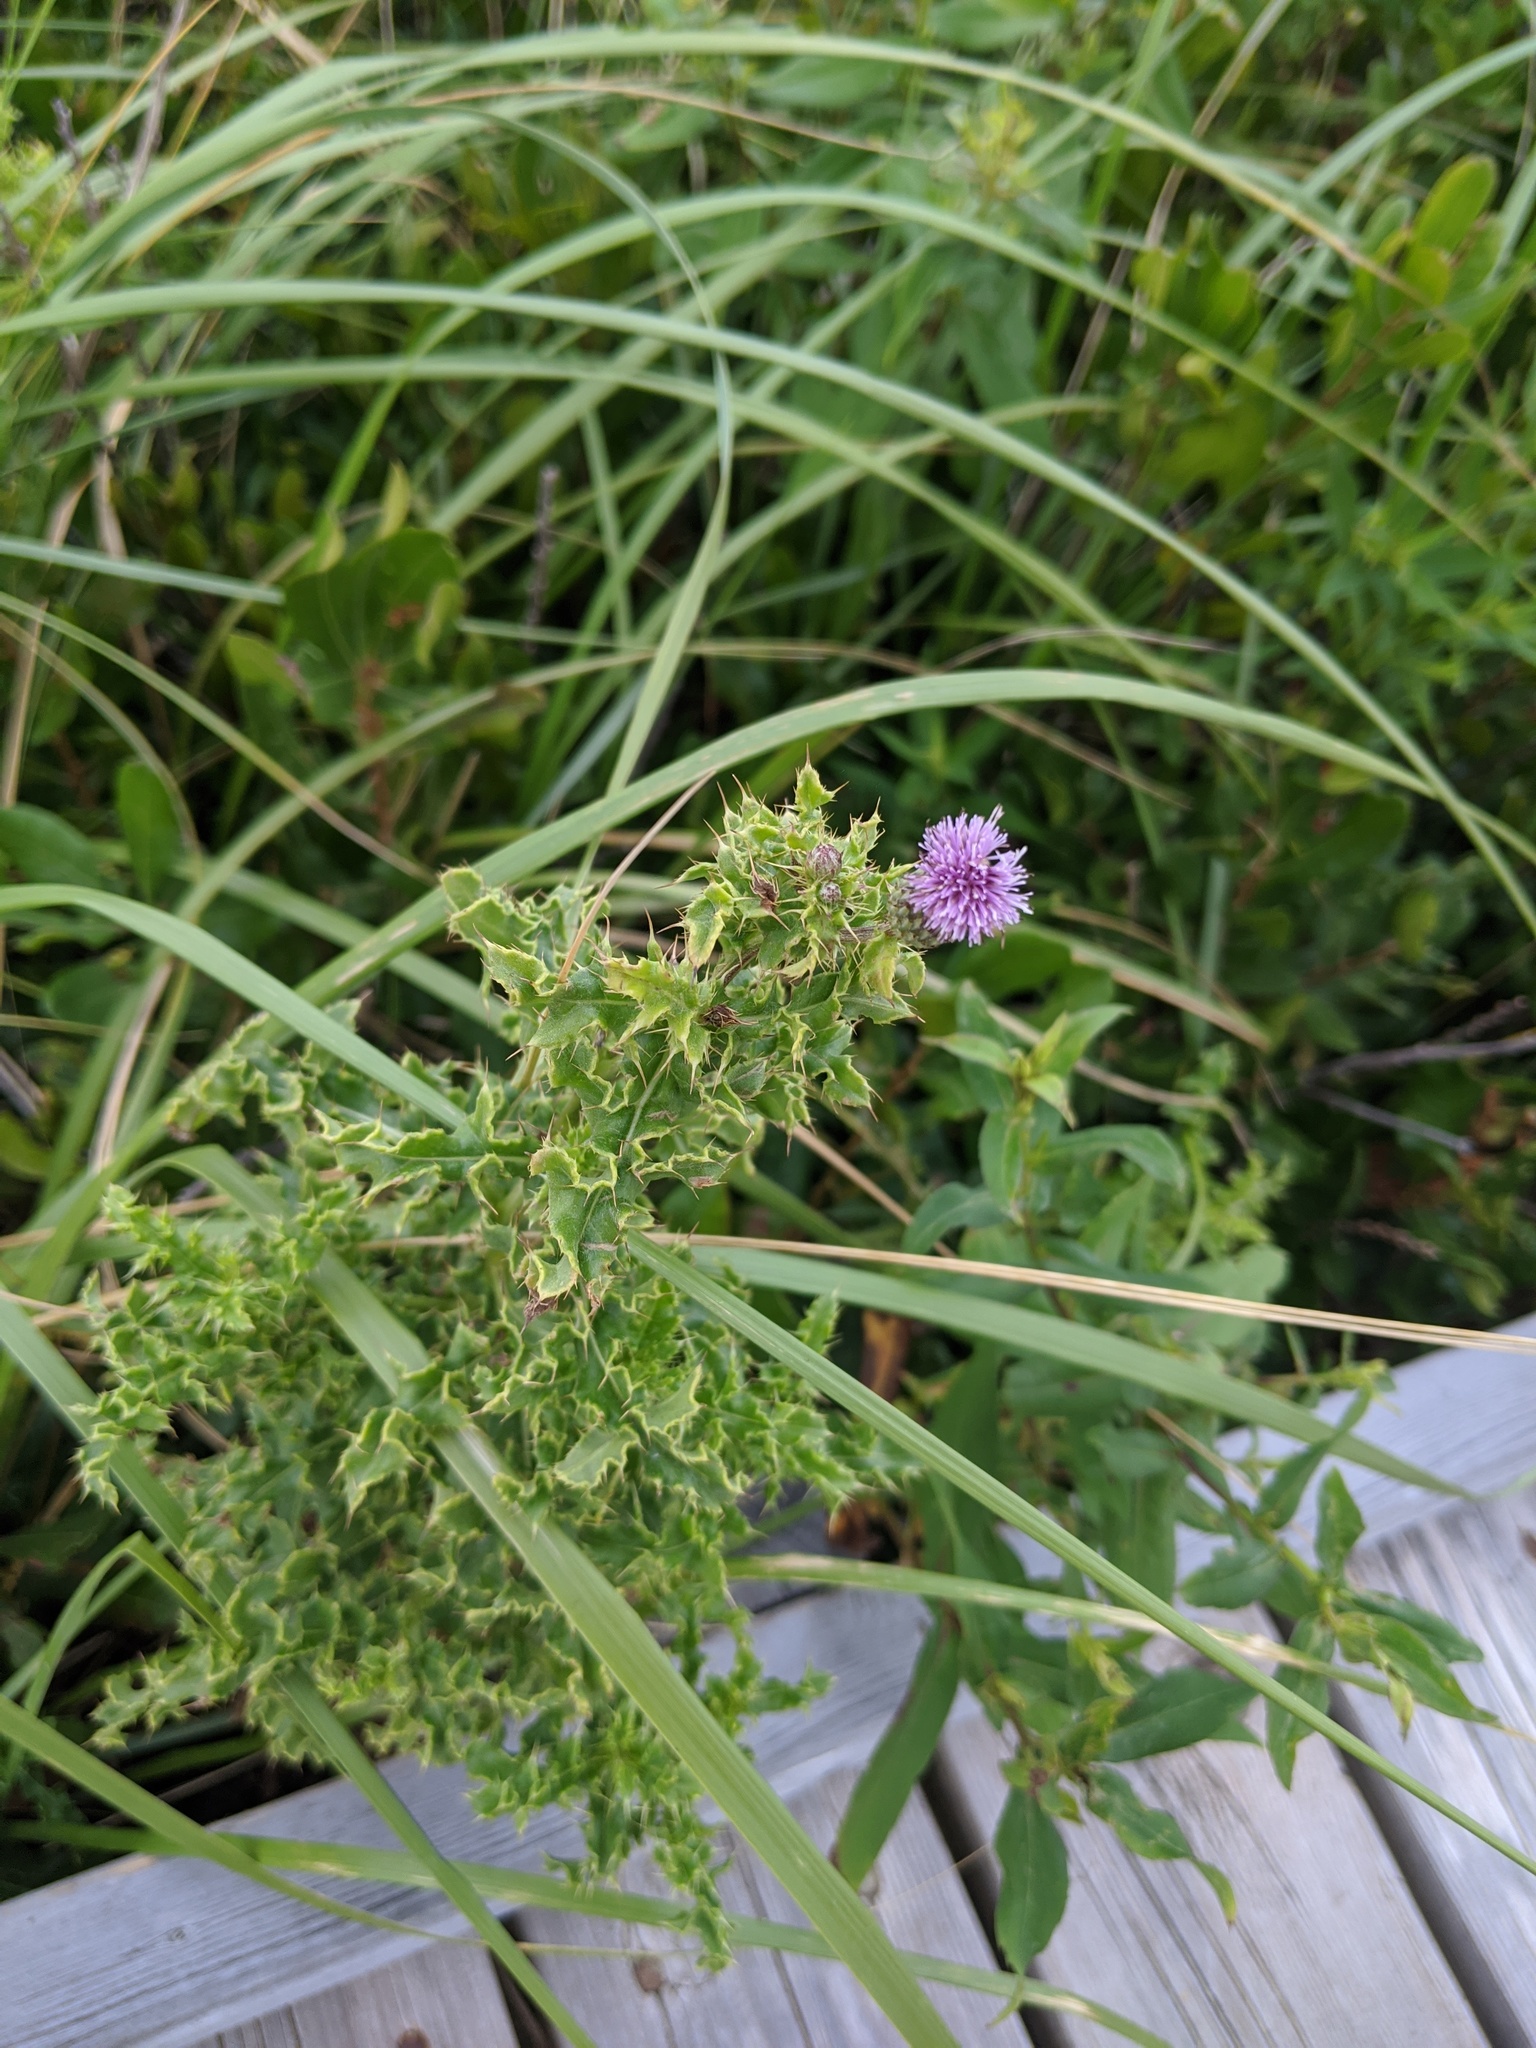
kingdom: Plantae
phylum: Tracheophyta
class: Magnoliopsida
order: Asterales
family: Asteraceae
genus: Cirsium
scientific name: Cirsium arvense
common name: Creeping thistle
